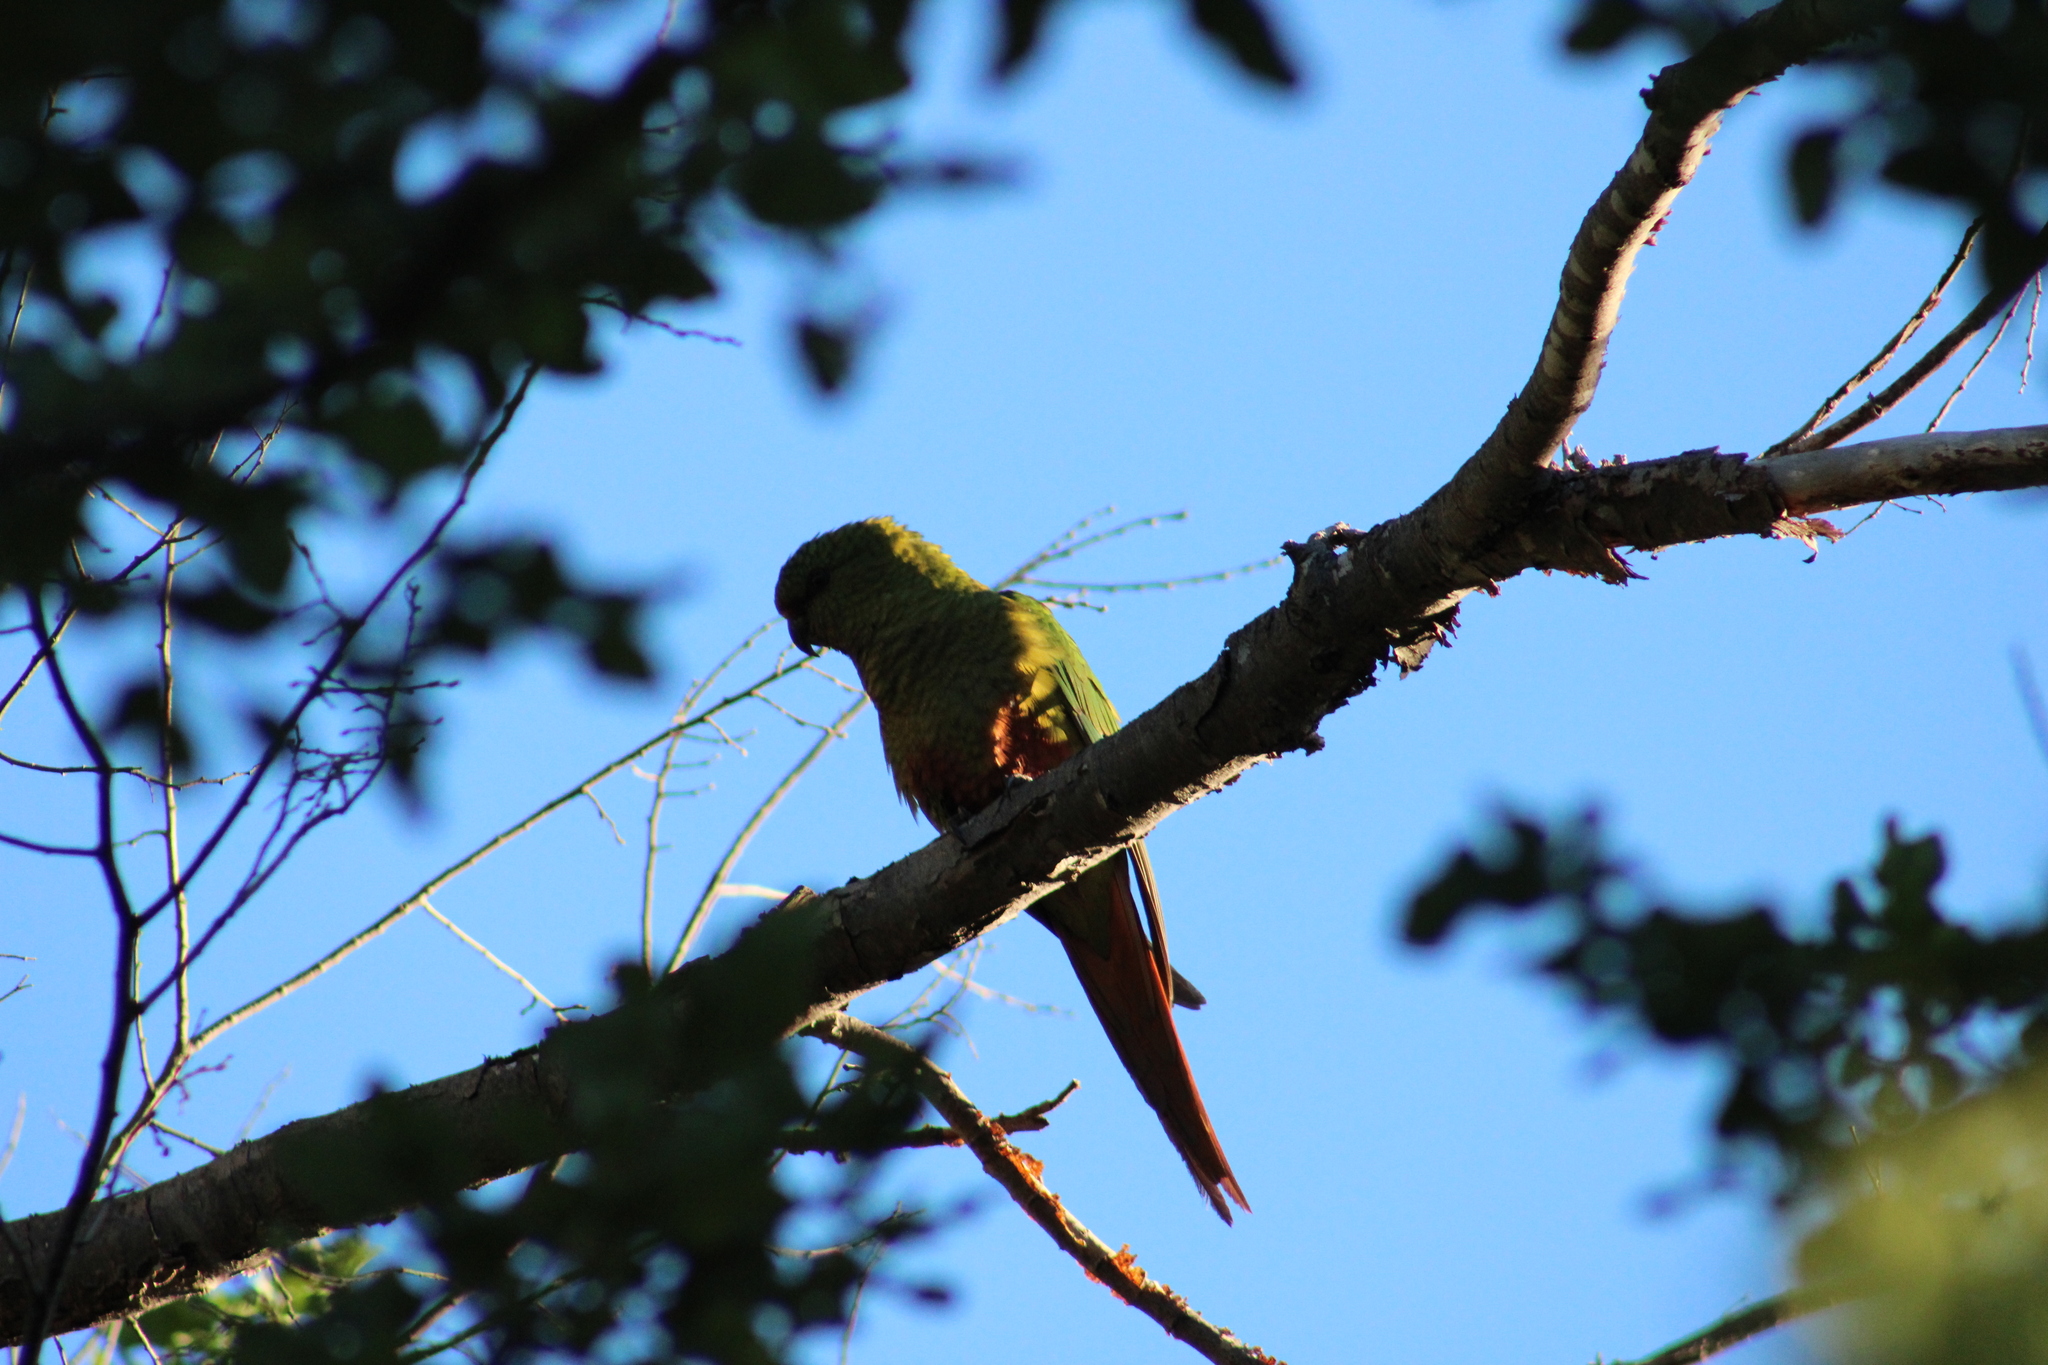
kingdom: Animalia
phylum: Chordata
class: Aves
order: Psittaciformes
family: Psittacidae
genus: Enicognathus
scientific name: Enicognathus ferrugineus
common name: Austral parakeet
